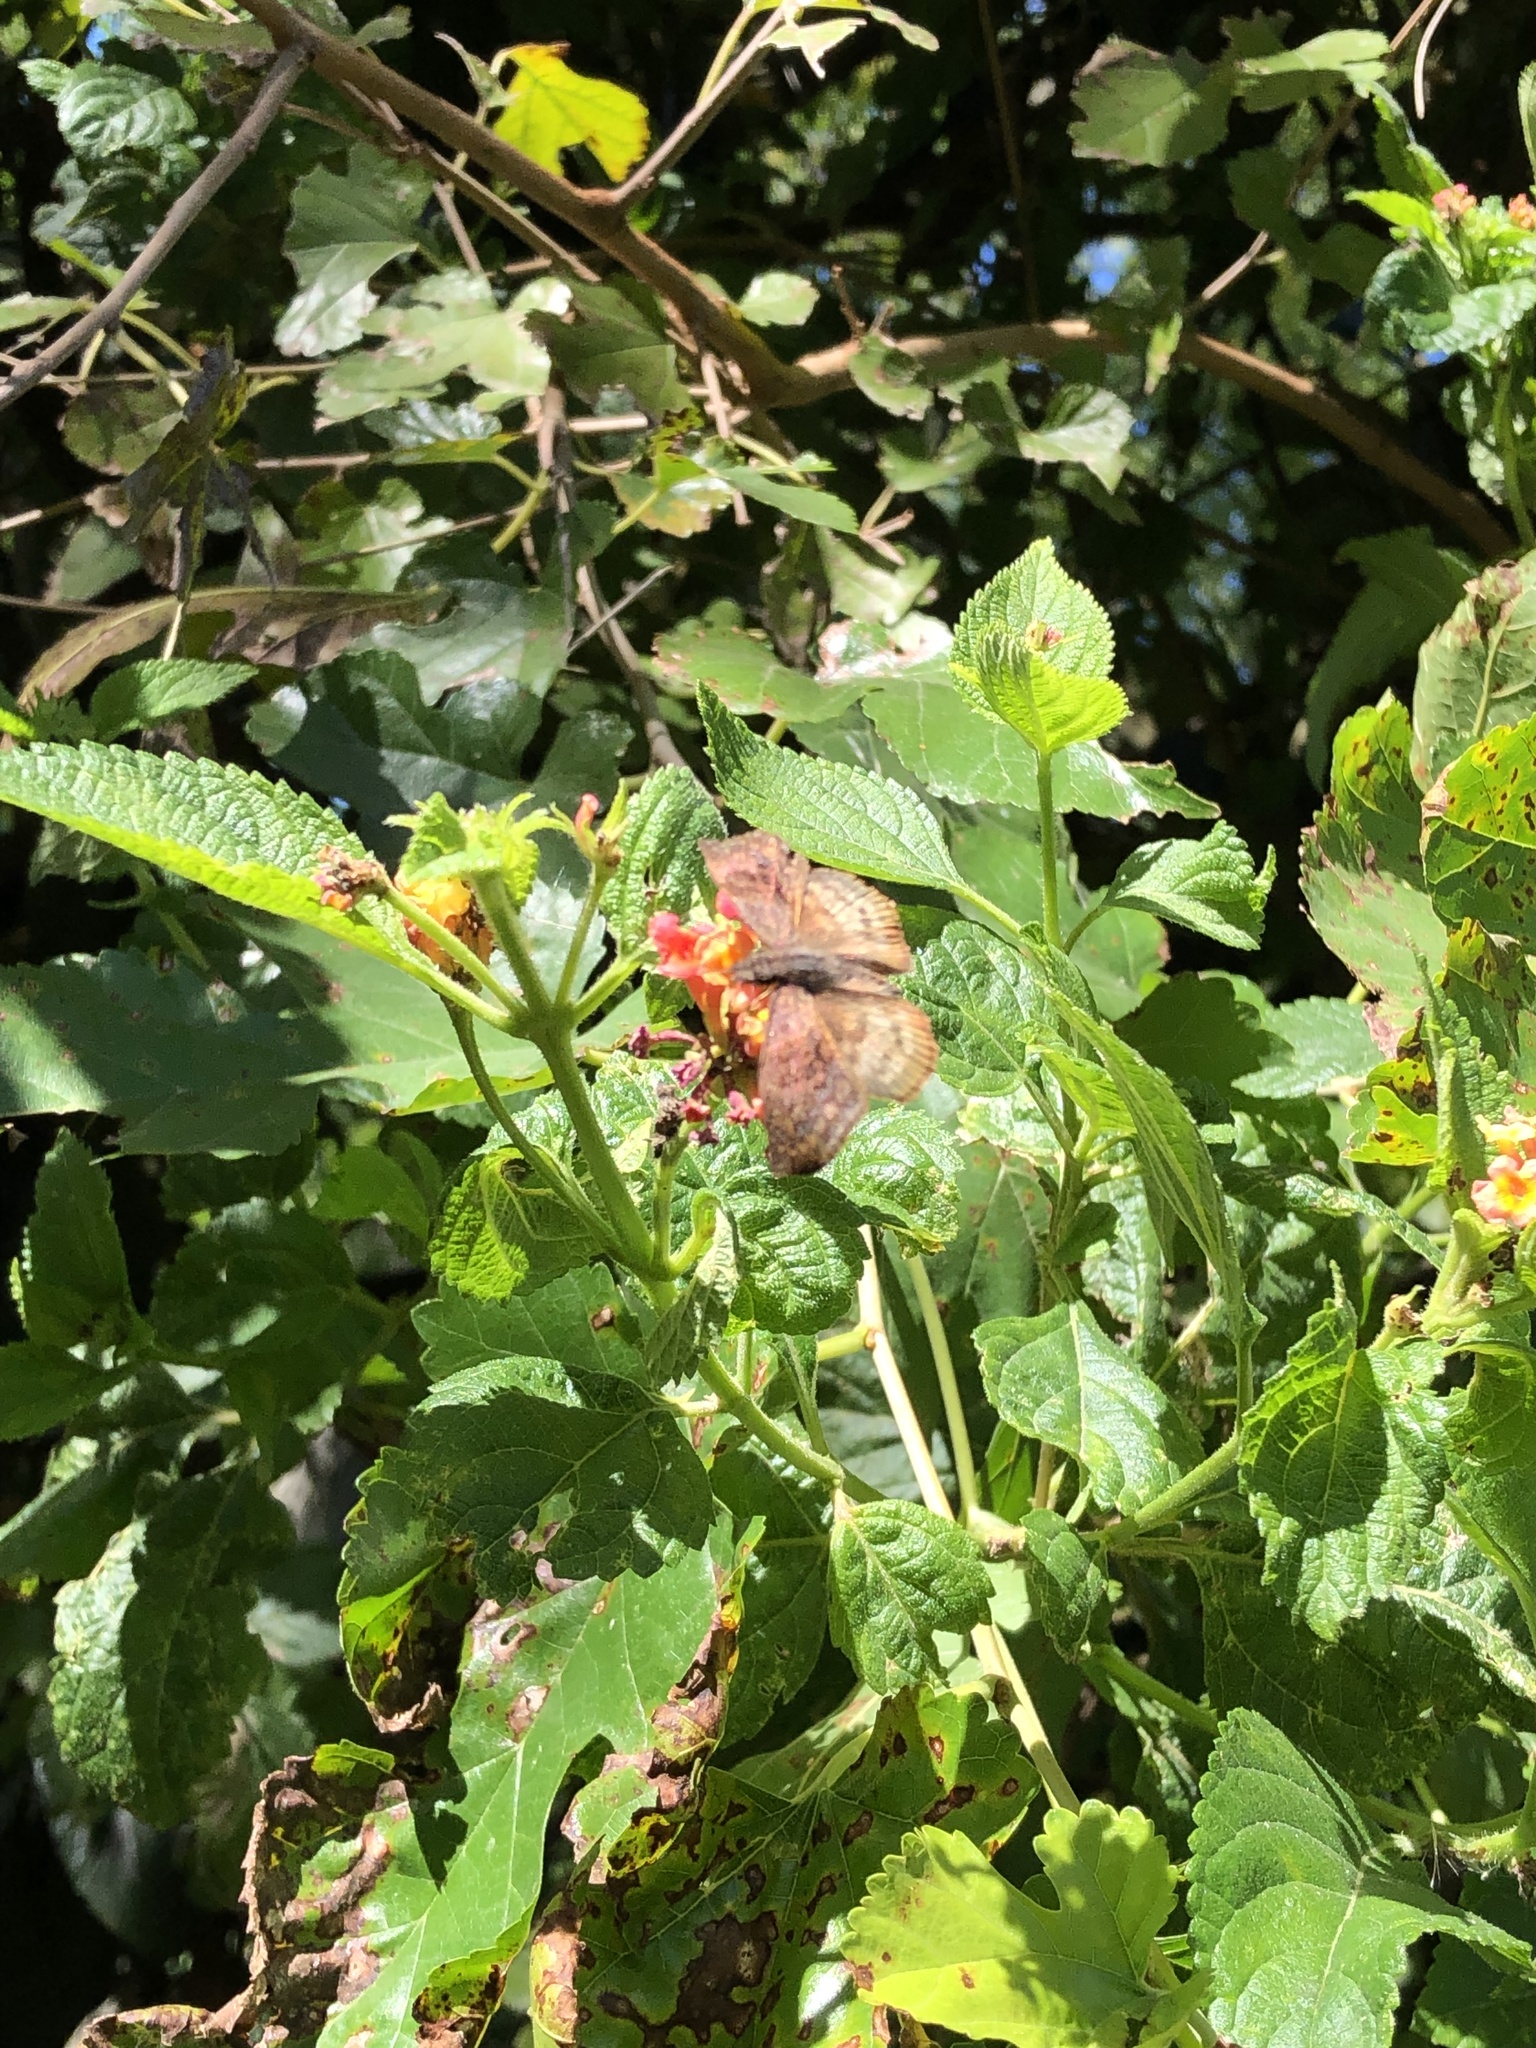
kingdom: Animalia
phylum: Arthropoda
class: Insecta
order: Lepidoptera
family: Hesperiidae
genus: Theagenes
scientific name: Theagenes dichrous
